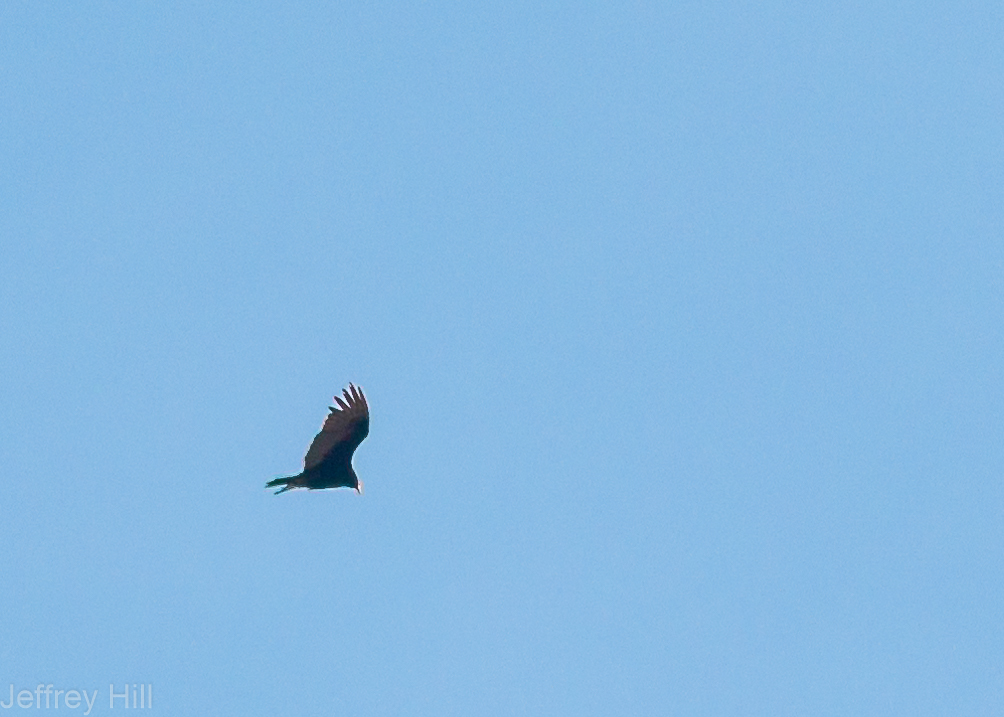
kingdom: Animalia
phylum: Chordata
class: Aves
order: Accipitriformes
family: Cathartidae
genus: Cathartes
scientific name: Cathartes aura
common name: Turkey vulture
